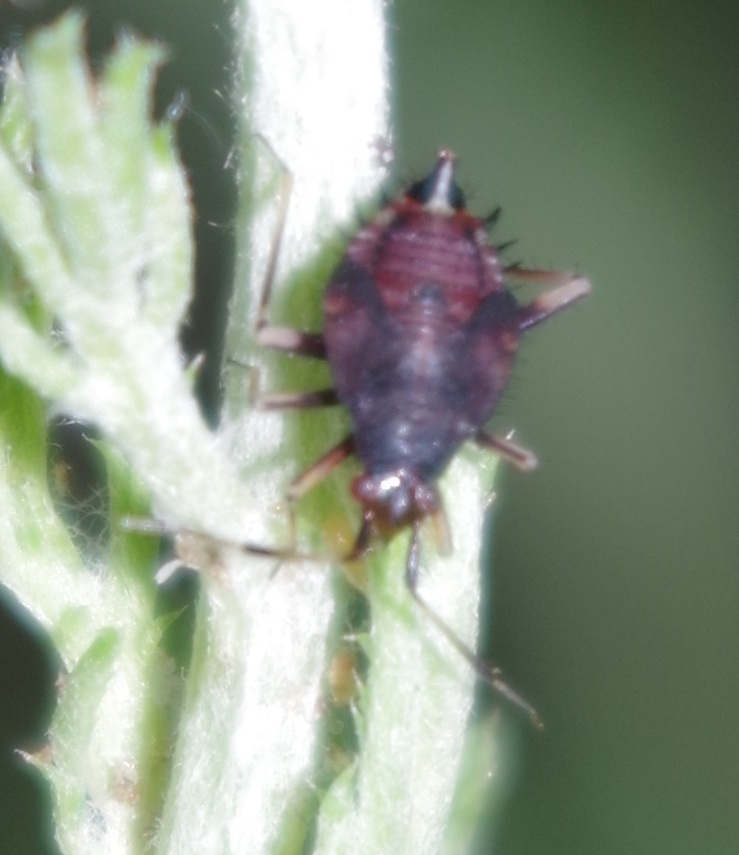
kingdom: Animalia
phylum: Arthropoda
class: Insecta
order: Hemiptera
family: Miridae
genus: Deraeocoris
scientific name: Deraeocoris ruber
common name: Plant bug
